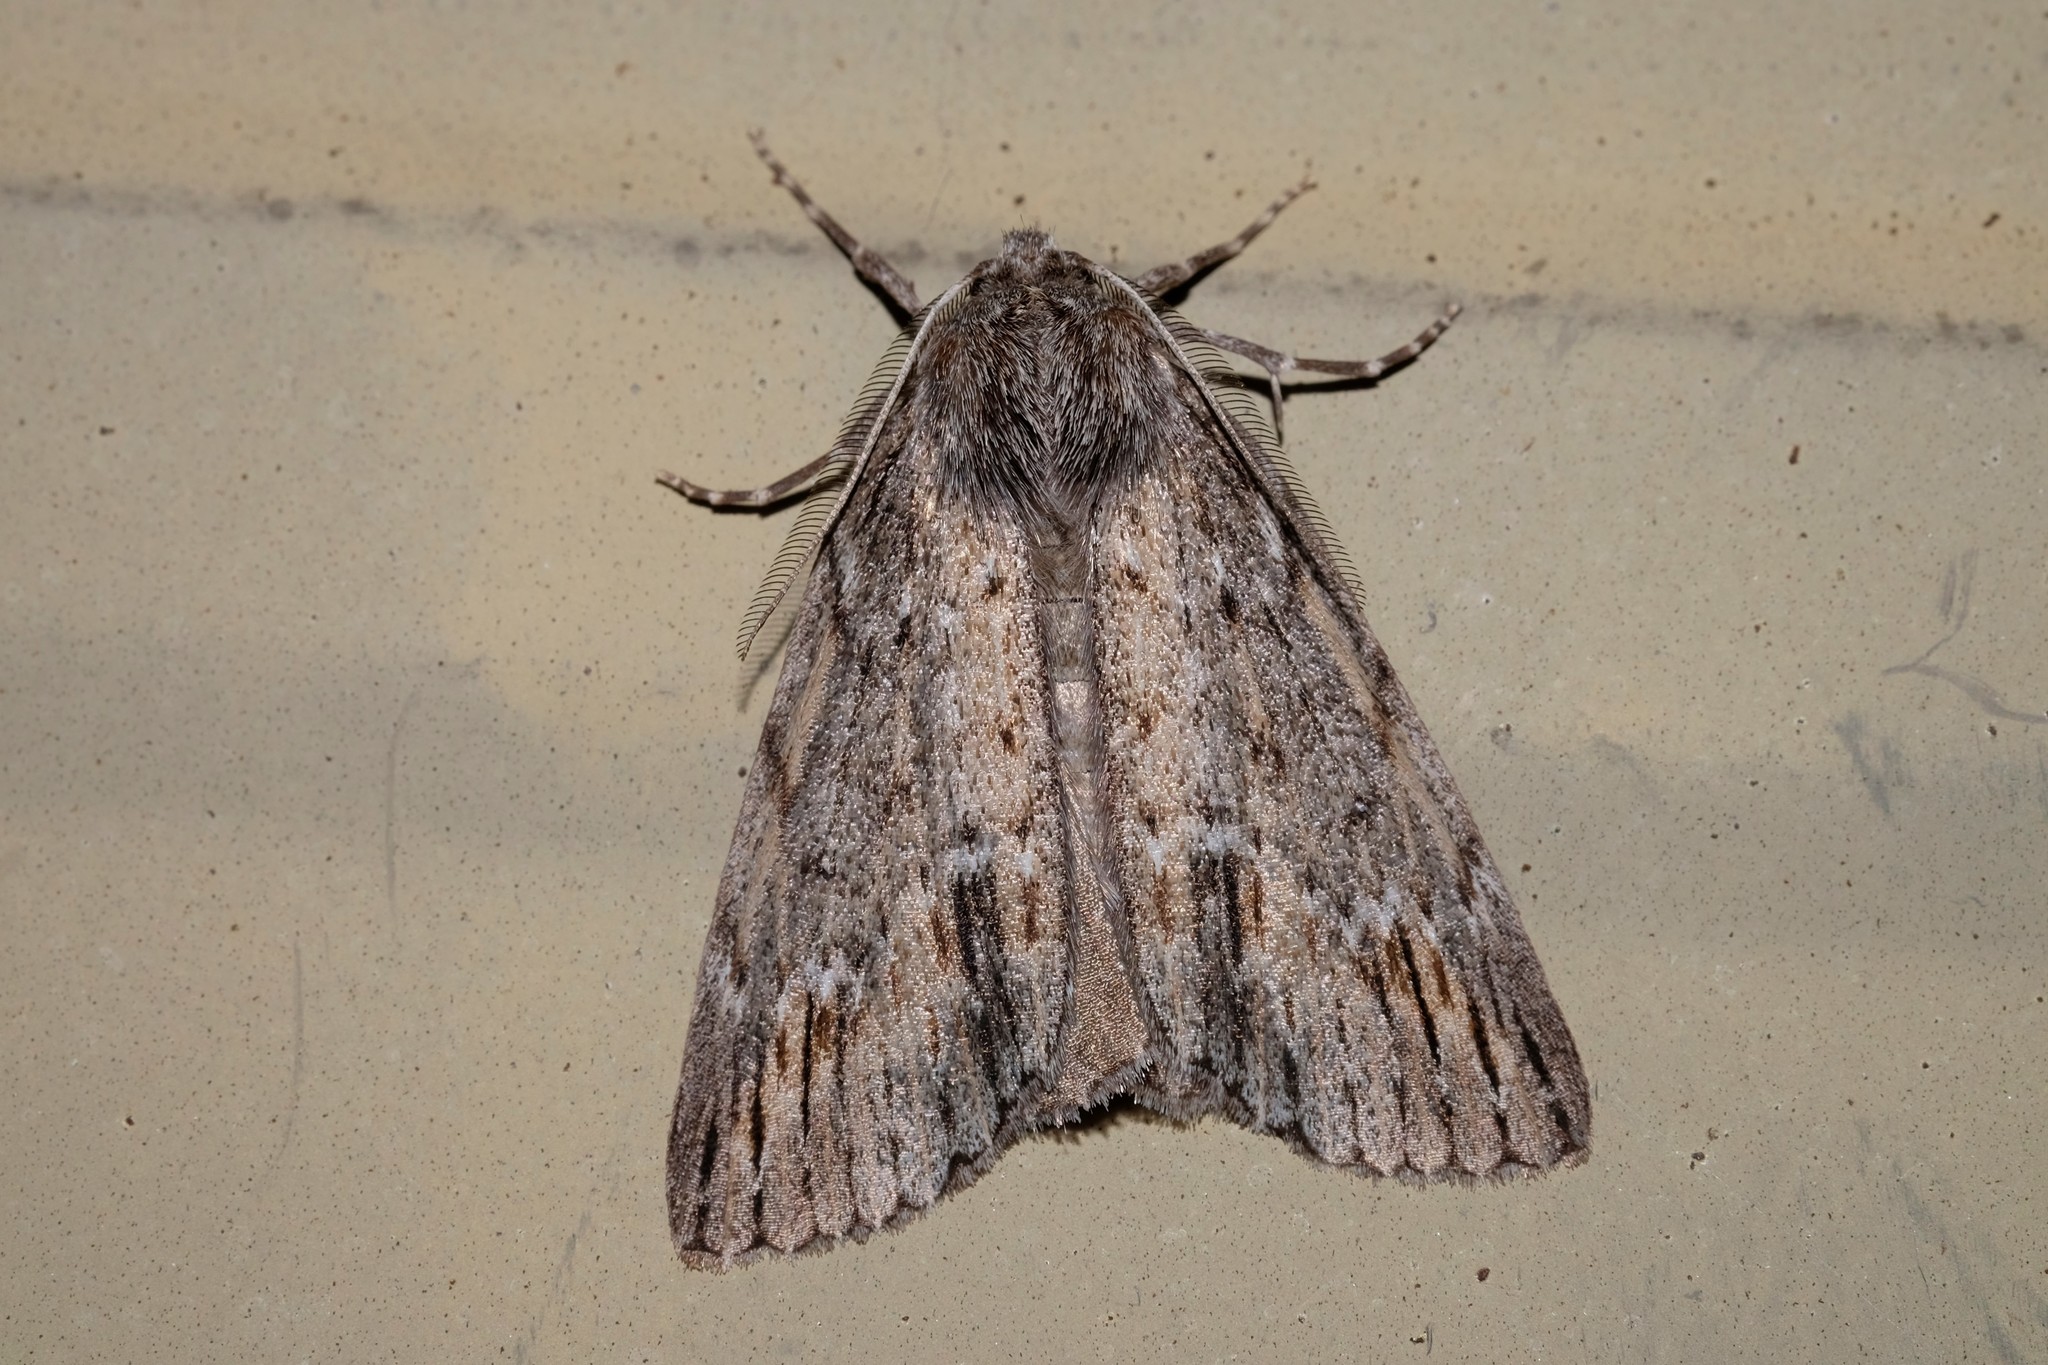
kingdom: Animalia
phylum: Arthropoda
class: Insecta
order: Lepidoptera
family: Geometridae
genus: Chlenias
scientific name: Chlenias banksiaria
